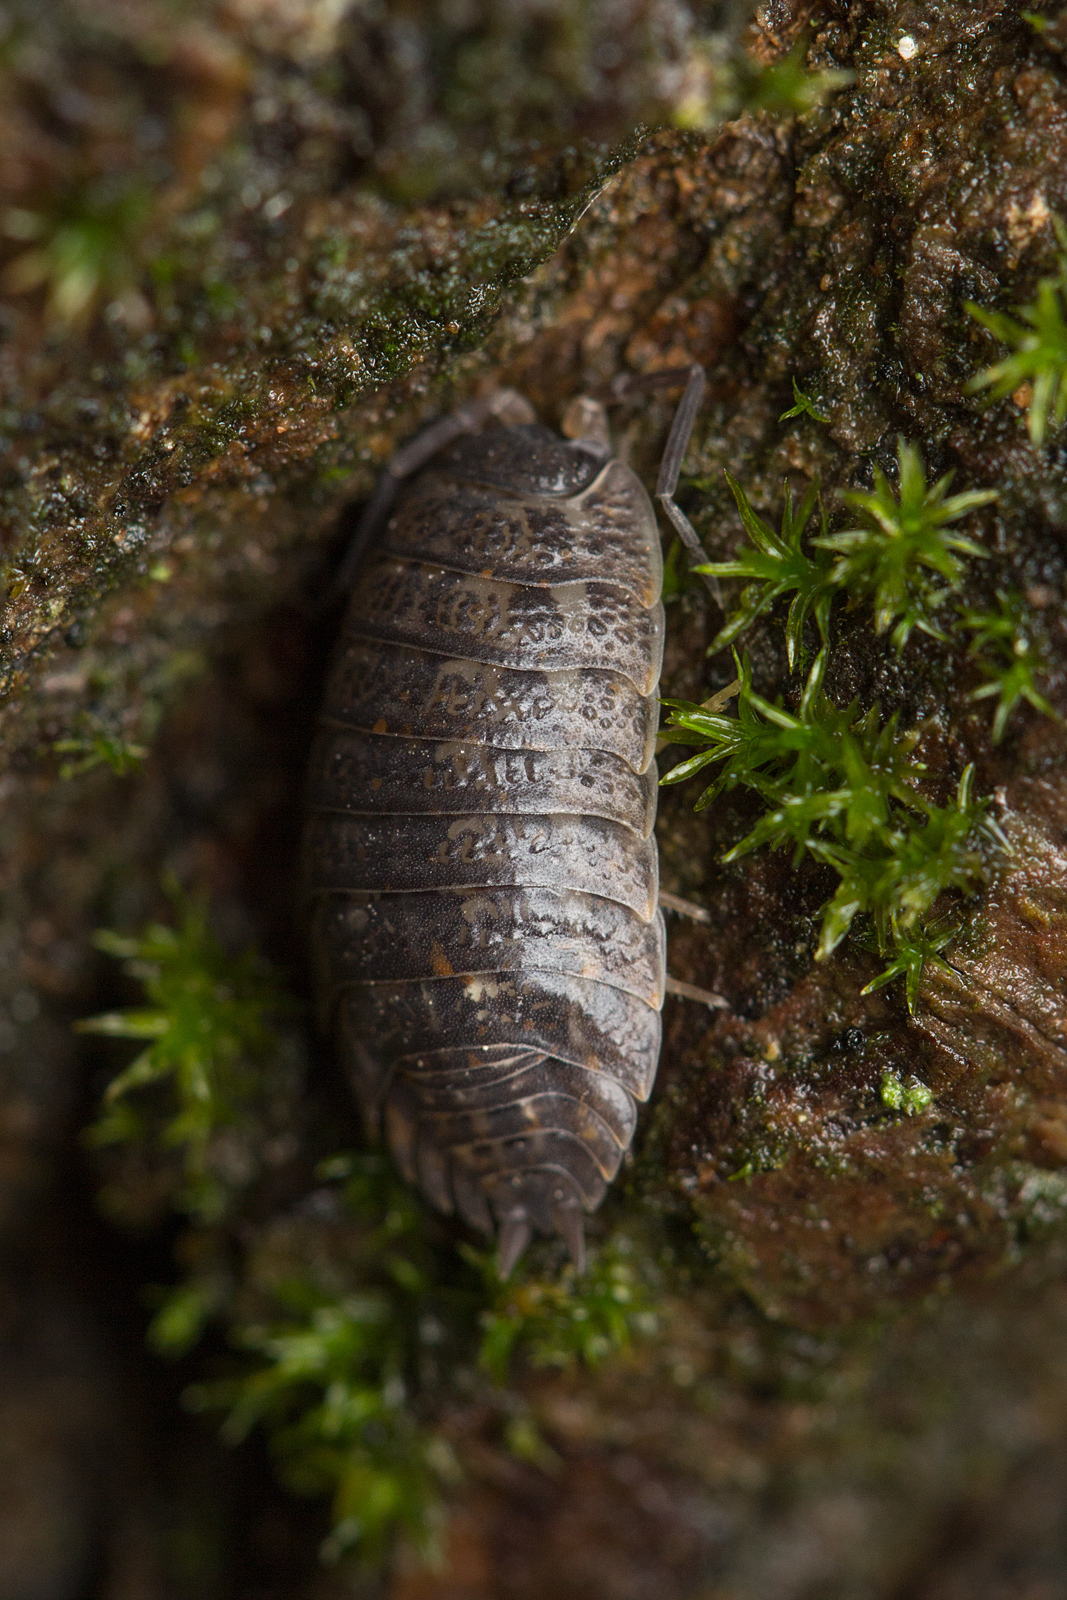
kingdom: Animalia
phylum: Arthropoda
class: Malacostraca
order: Isopoda
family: Trachelipodidae
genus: Trachelipus
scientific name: Trachelipus rathkii
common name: Isopod
